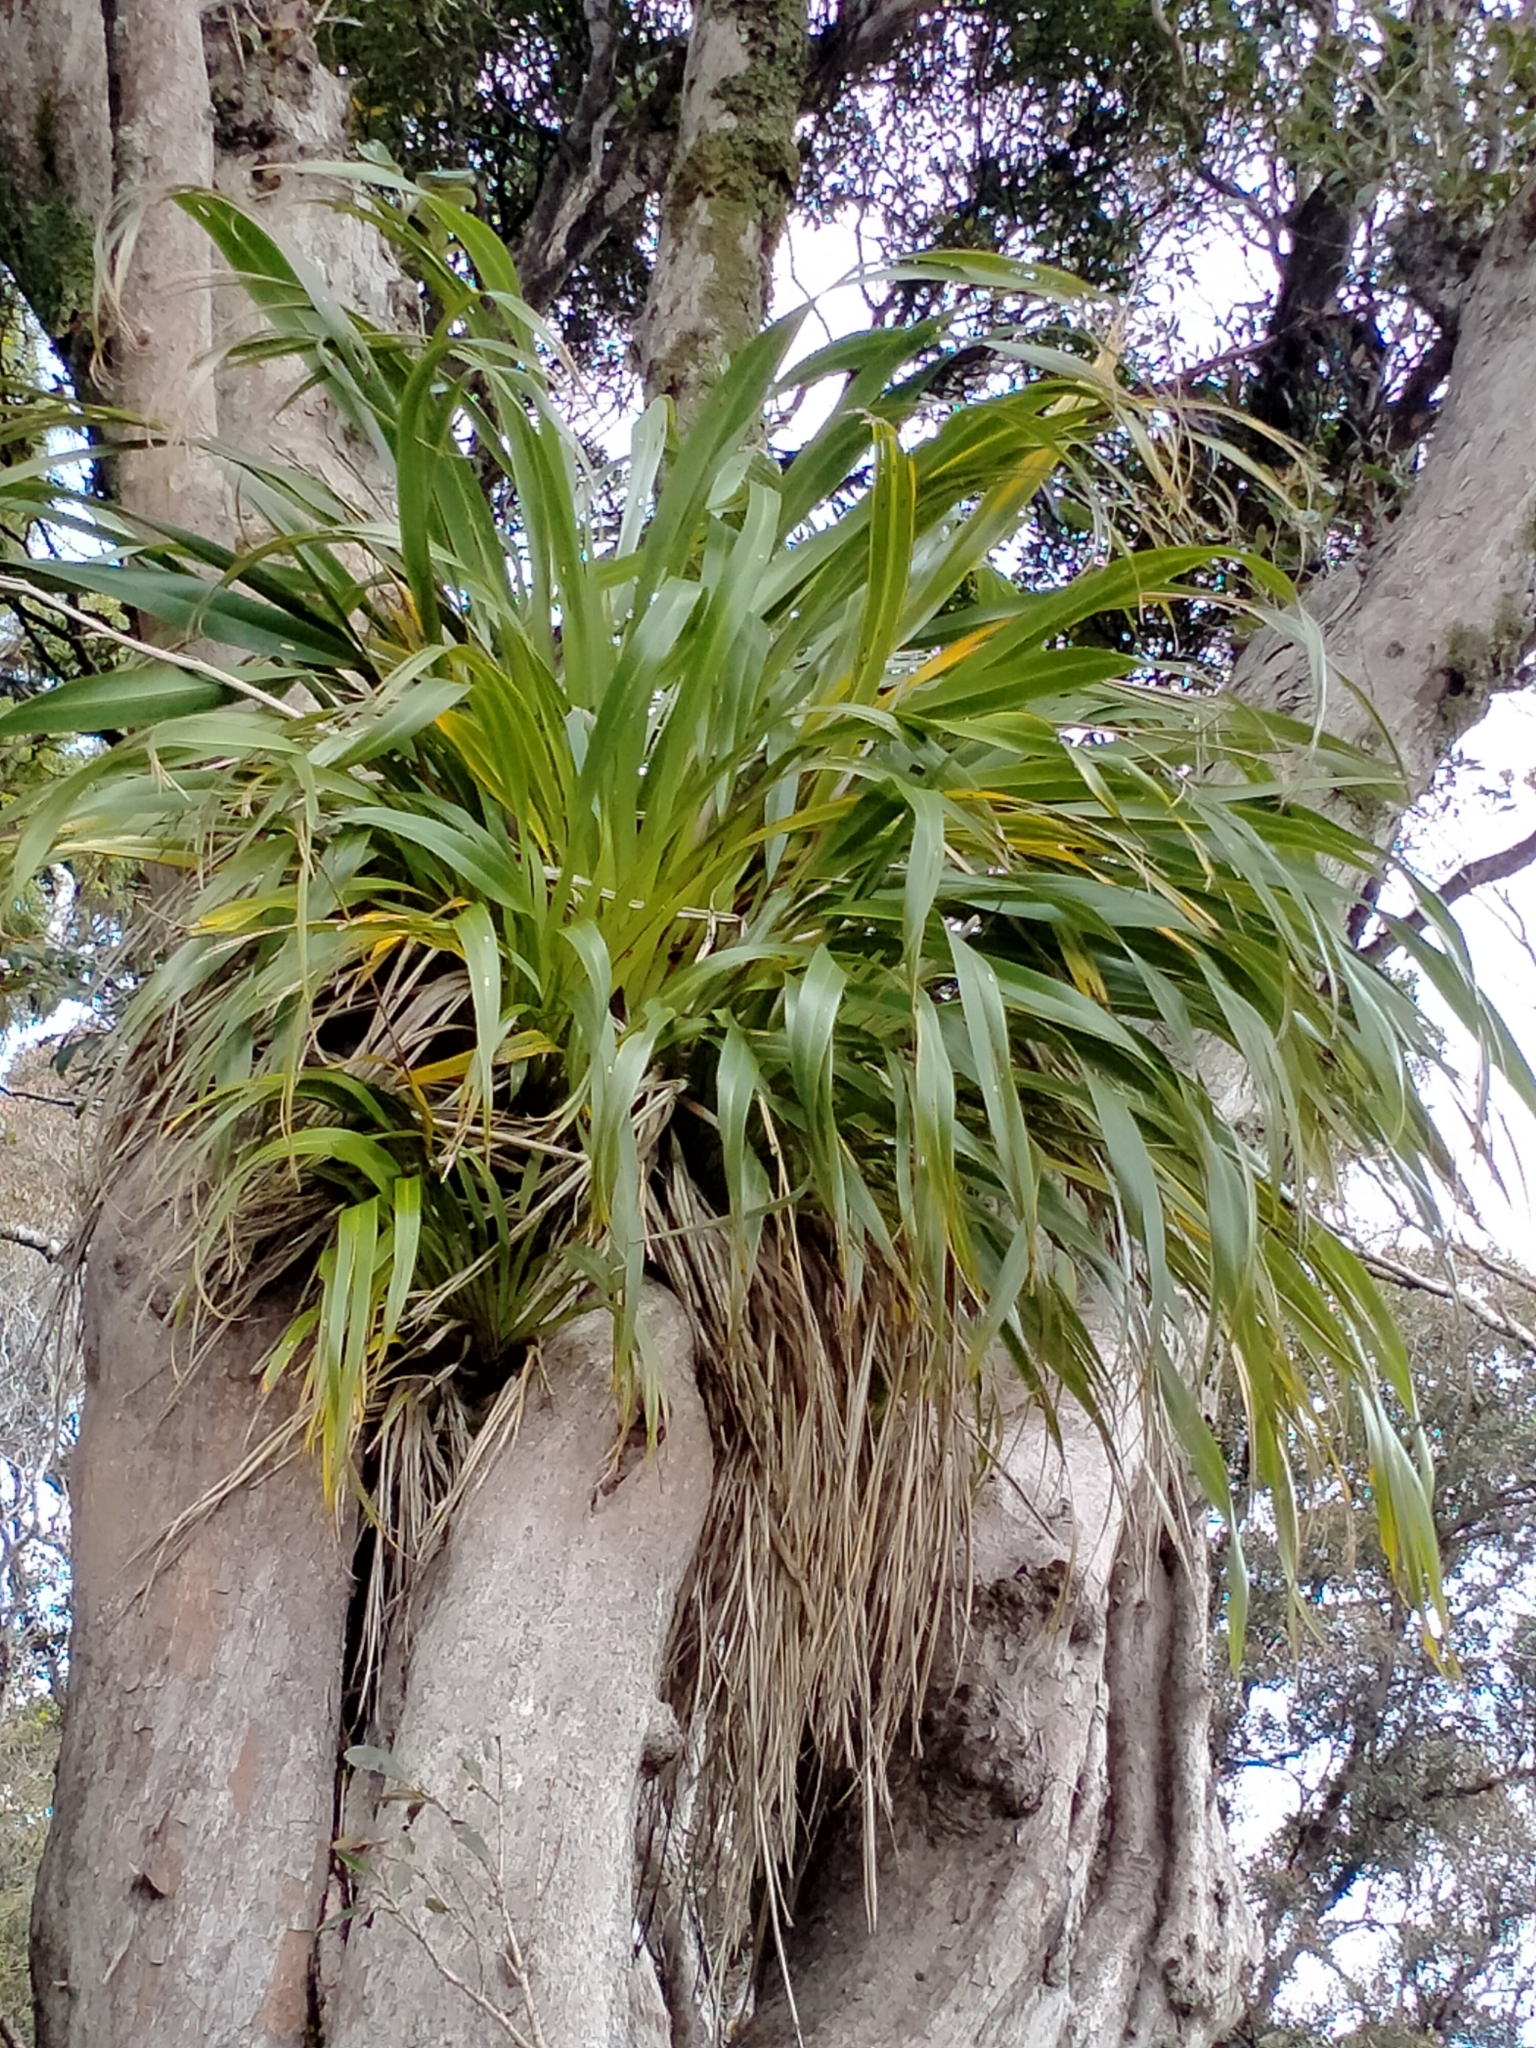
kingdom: Plantae
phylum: Tracheophyta
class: Liliopsida
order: Asparagales
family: Asphodelaceae
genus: Phormium
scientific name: Phormium colensoi
